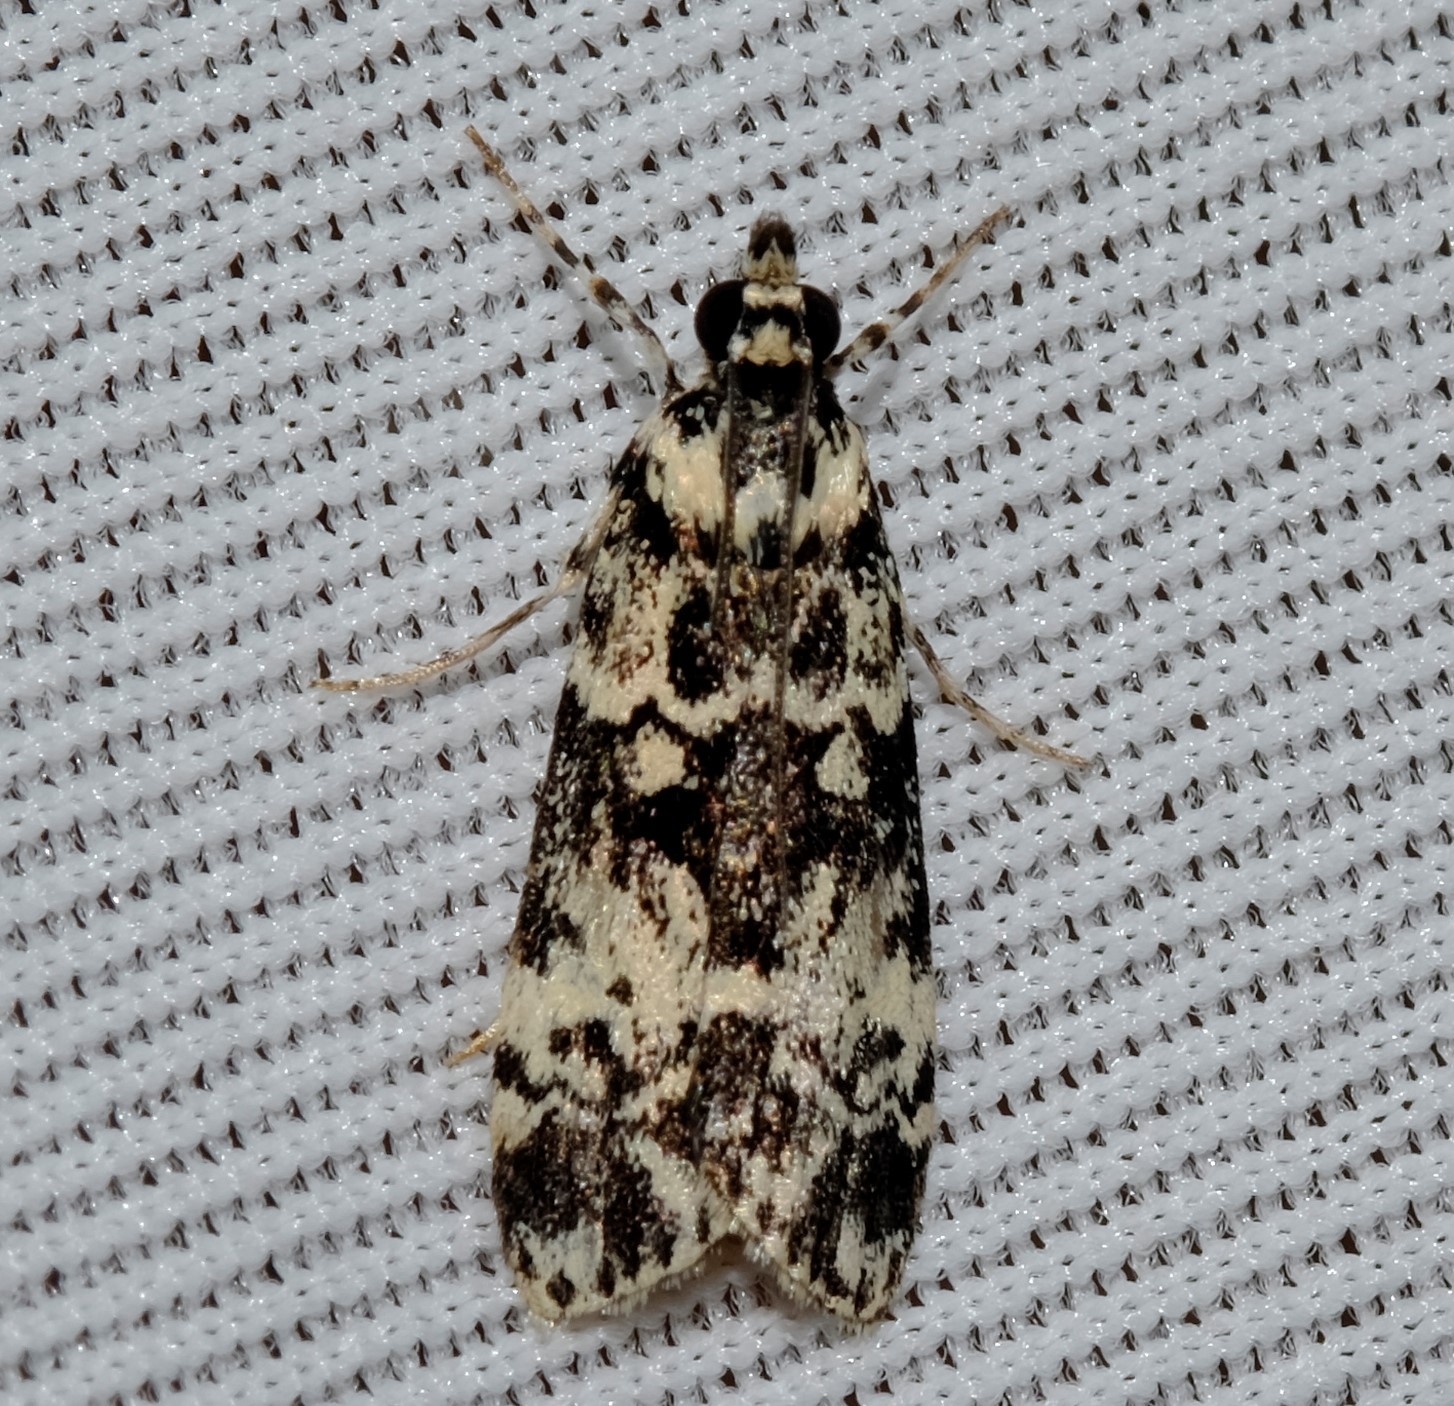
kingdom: Animalia
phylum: Arthropoda
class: Insecta
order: Lepidoptera
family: Crambidae
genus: Scoparia
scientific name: Scoparia exhibitalis
